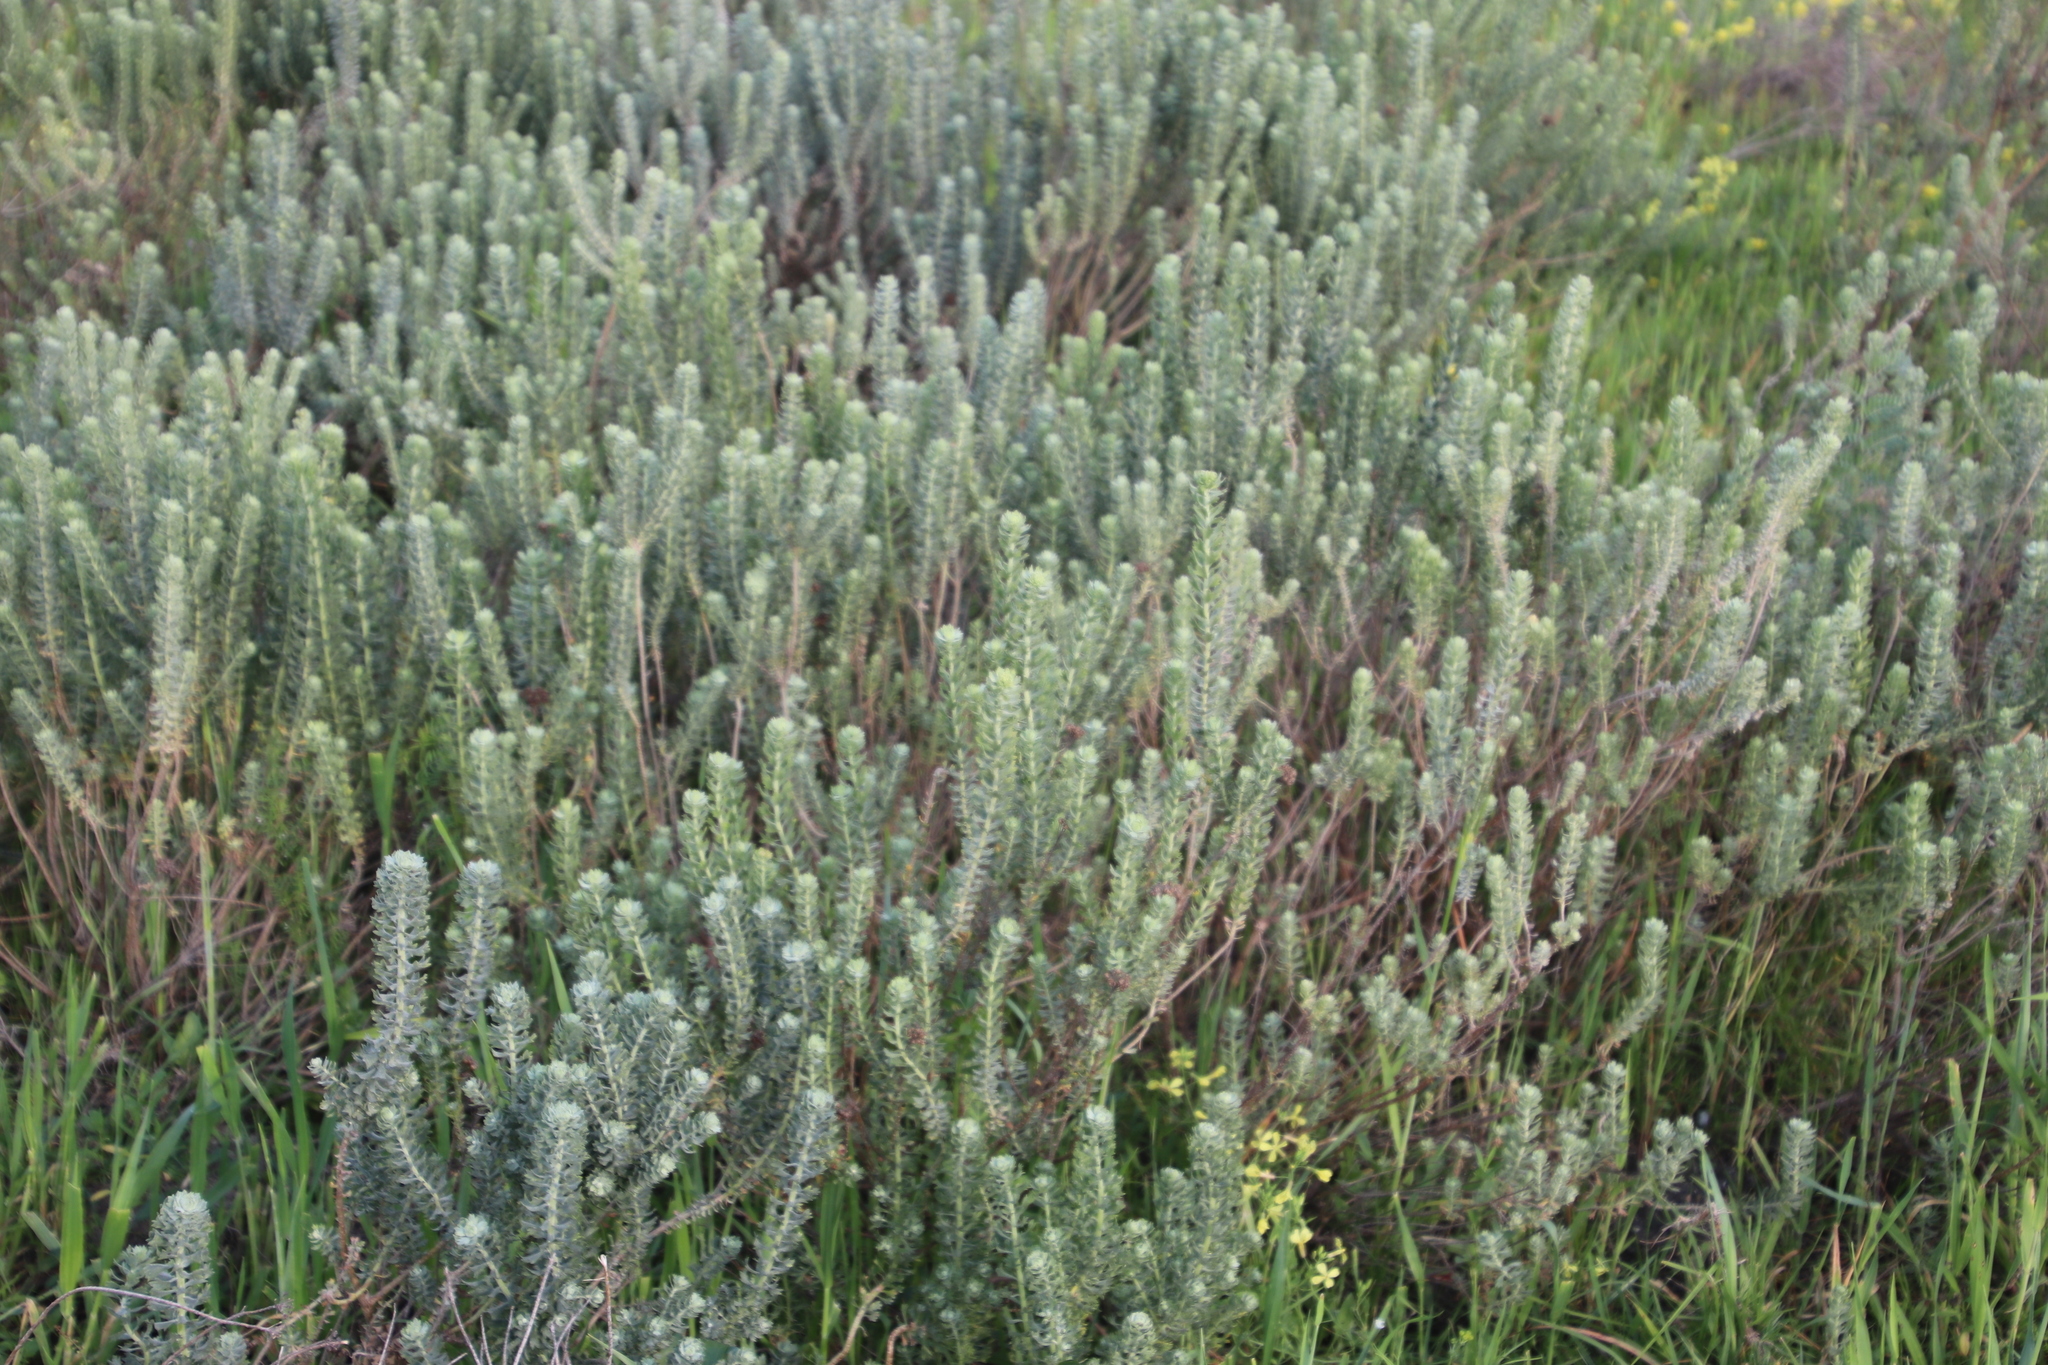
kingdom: Plantae
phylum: Tracheophyta
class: Magnoliopsida
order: Asterales
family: Asteraceae
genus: Athanasia
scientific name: Athanasia trifurcata
